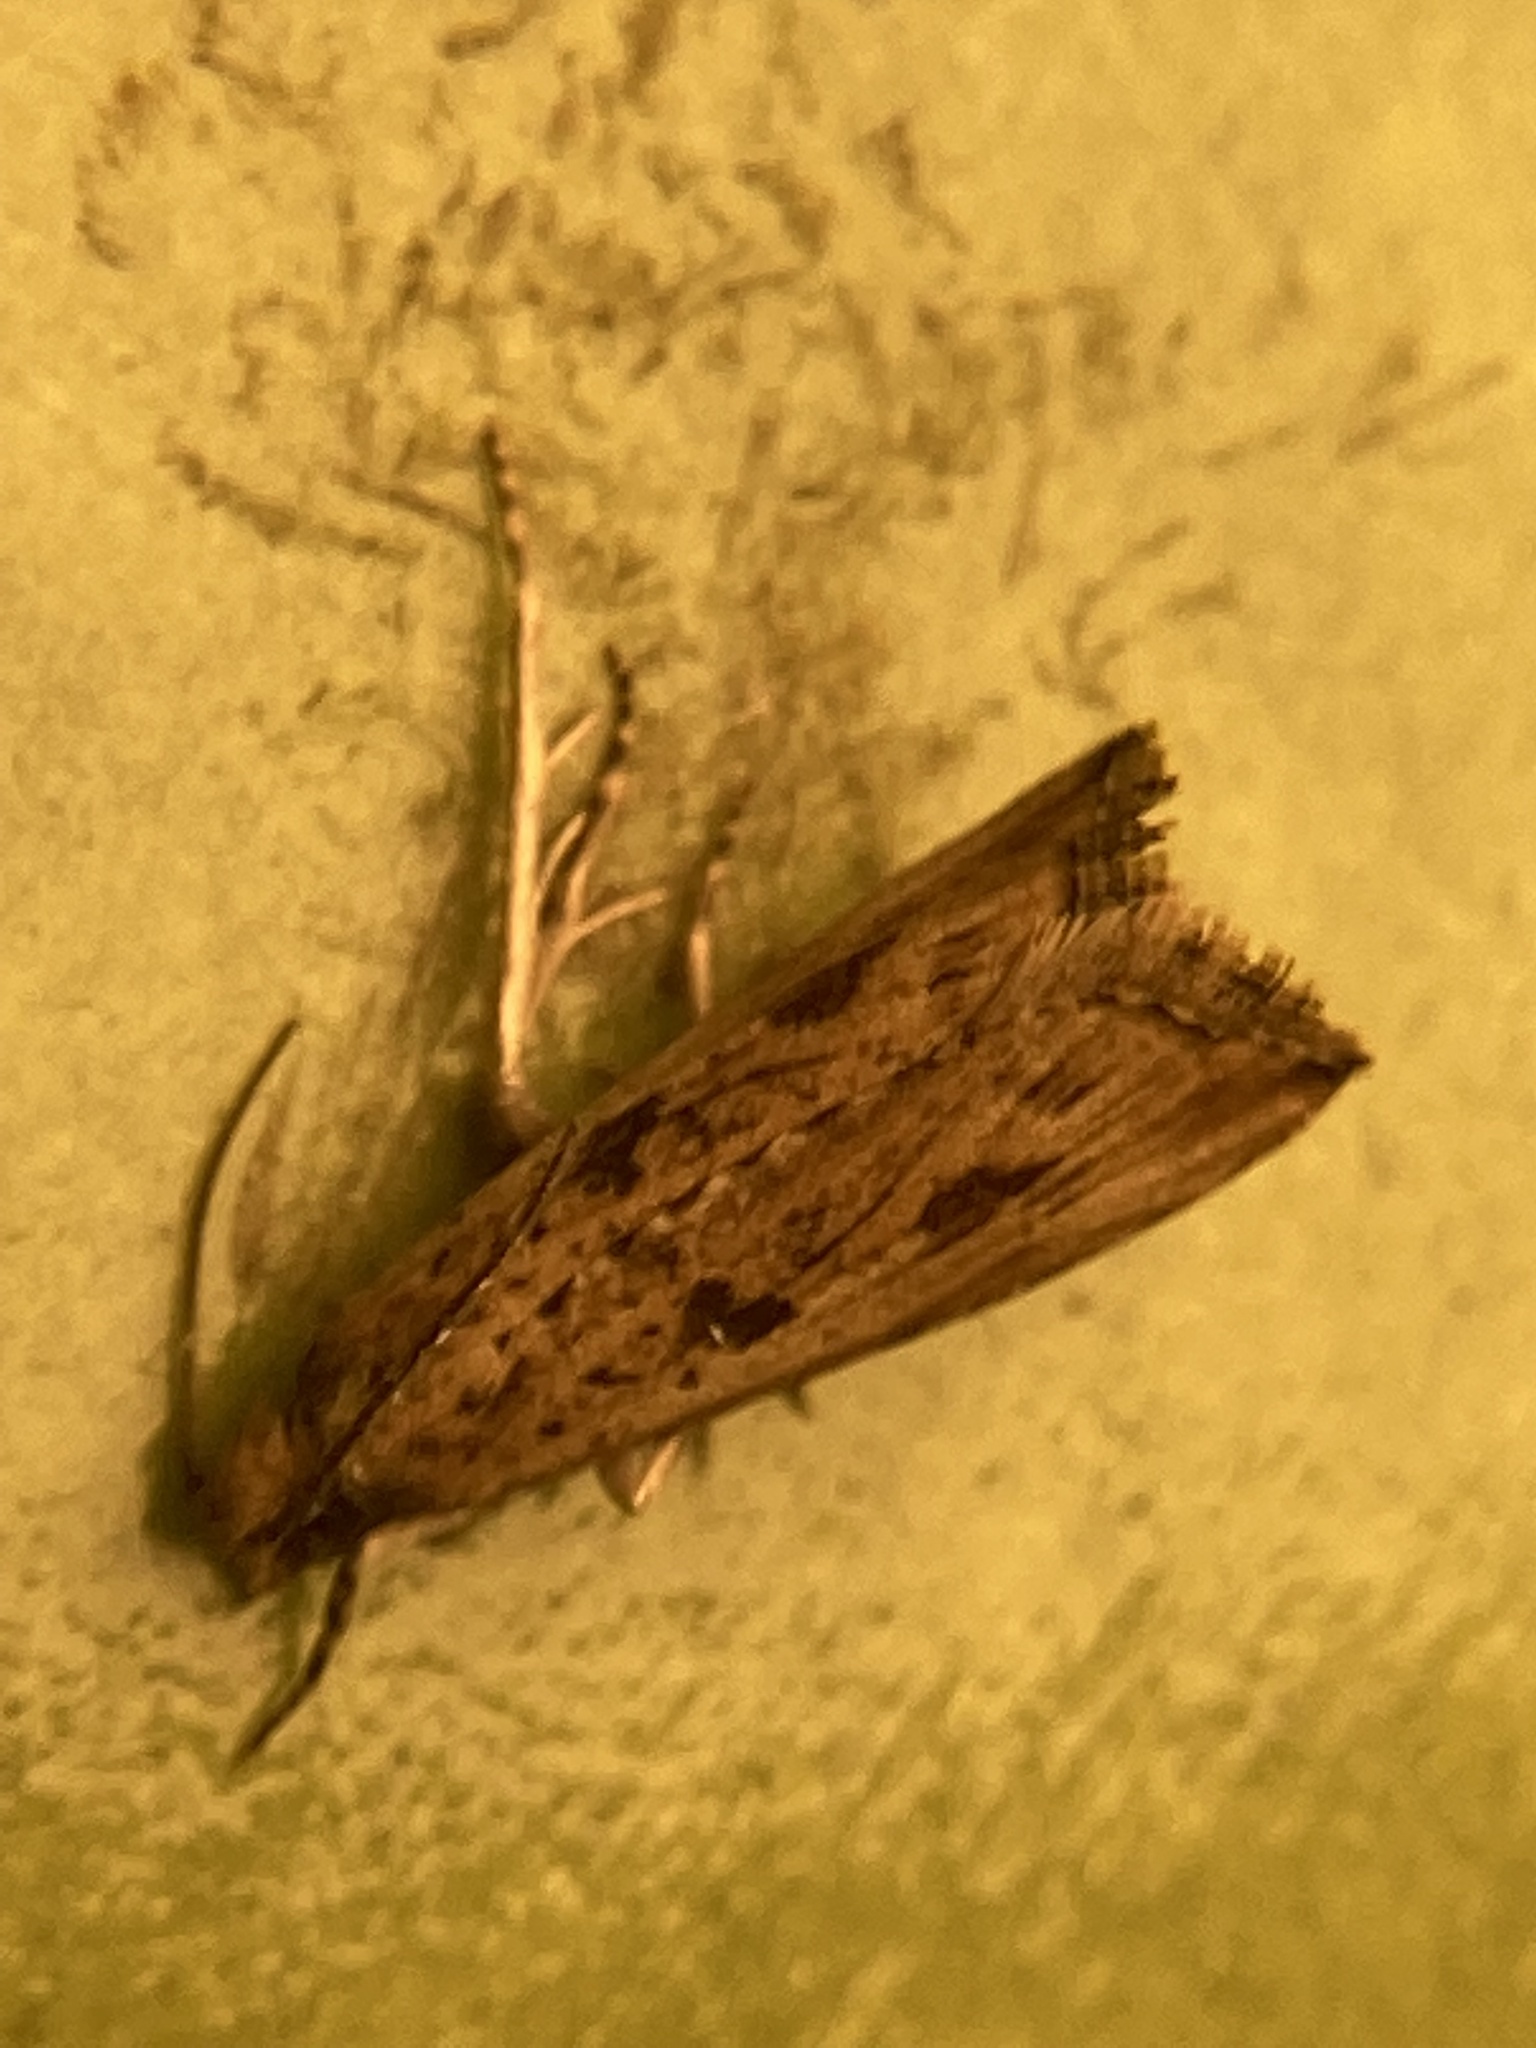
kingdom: Animalia
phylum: Arthropoda
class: Insecta
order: Lepidoptera
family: Tortricidae
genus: Bactra
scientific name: Bactra verutana
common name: Javelin moth
